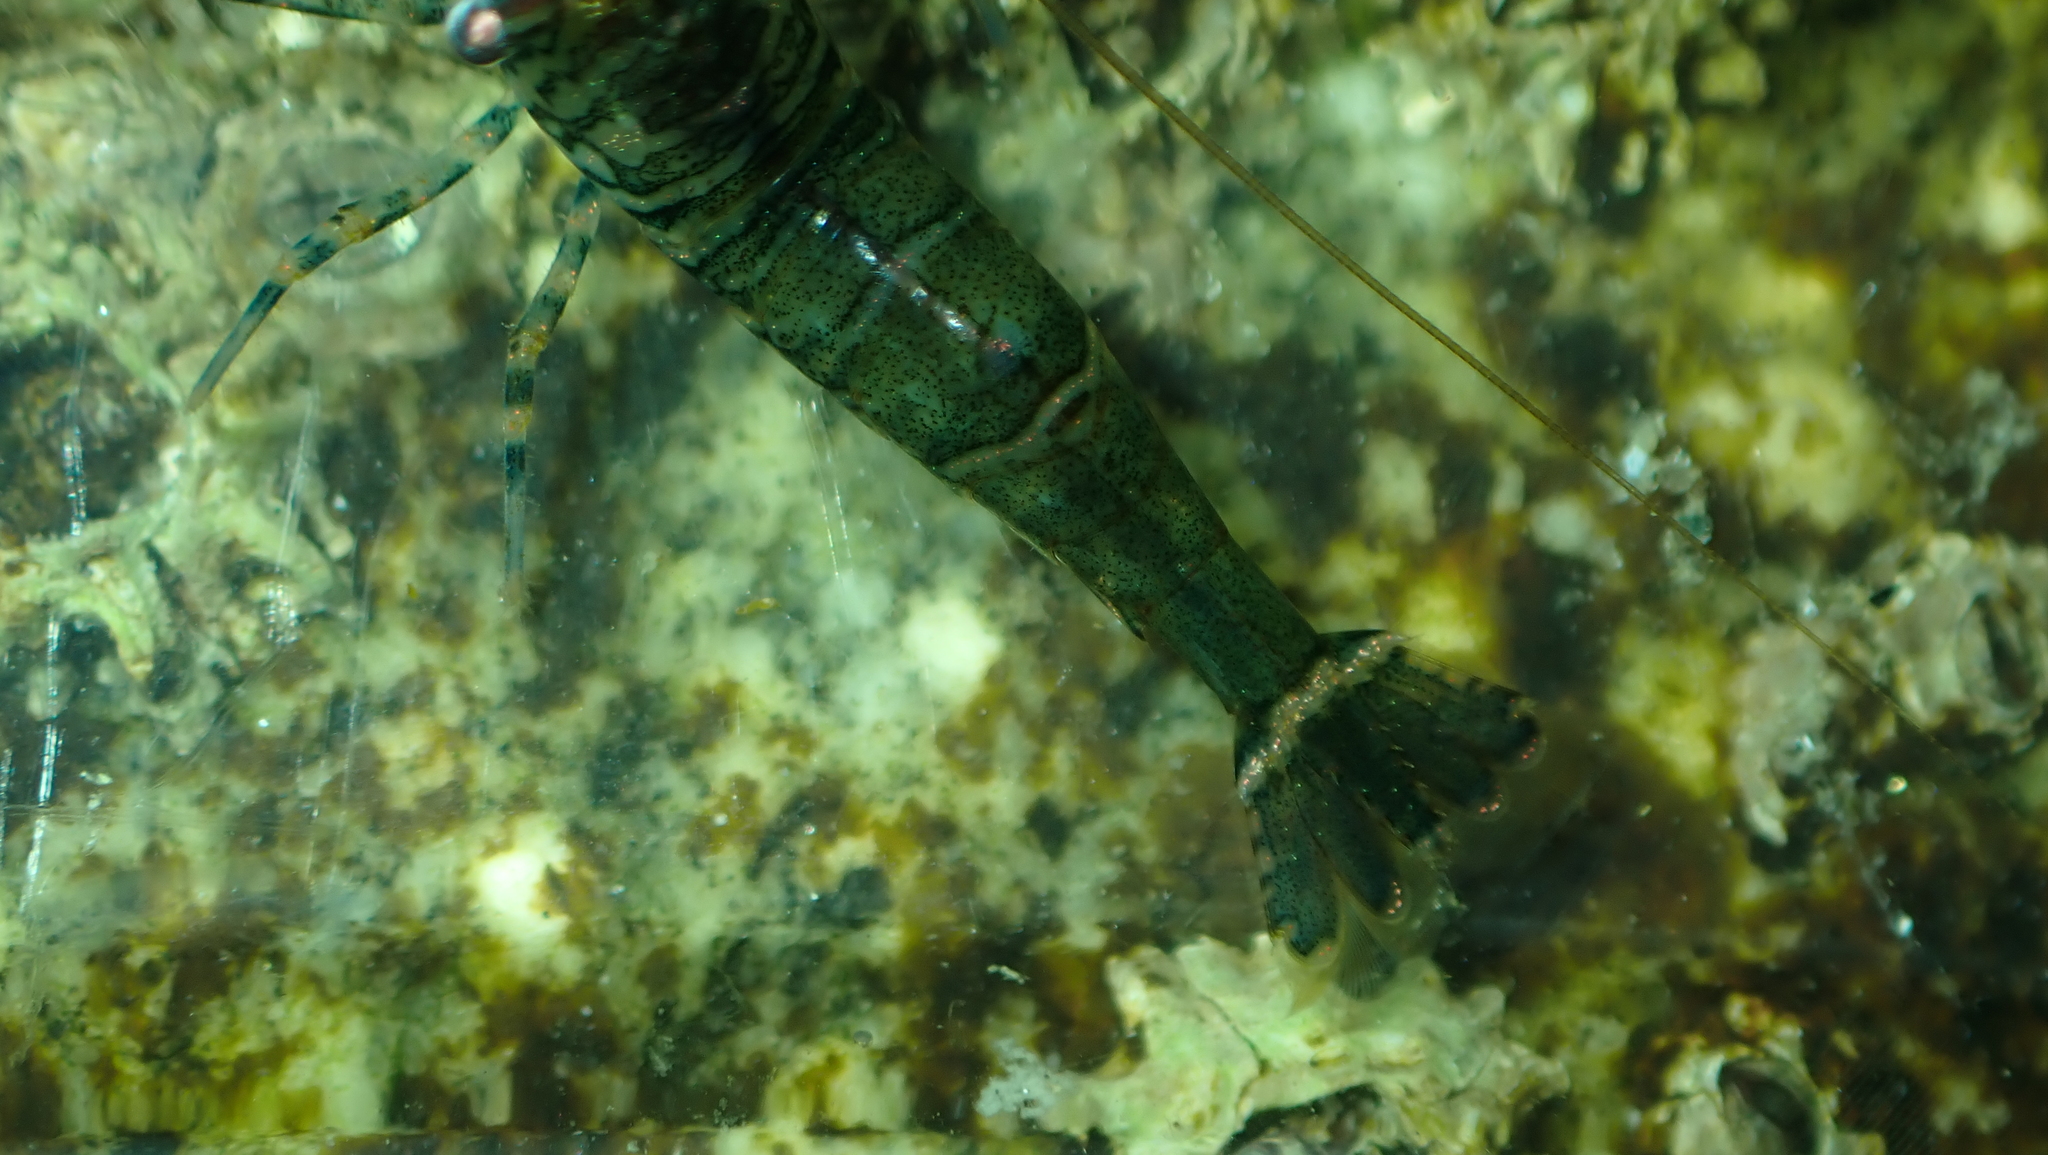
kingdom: Animalia
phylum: Arthropoda
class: Malacostraca
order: Decapoda
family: Thoridae
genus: Heptacarpus
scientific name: Heptacarpus sitchensis
